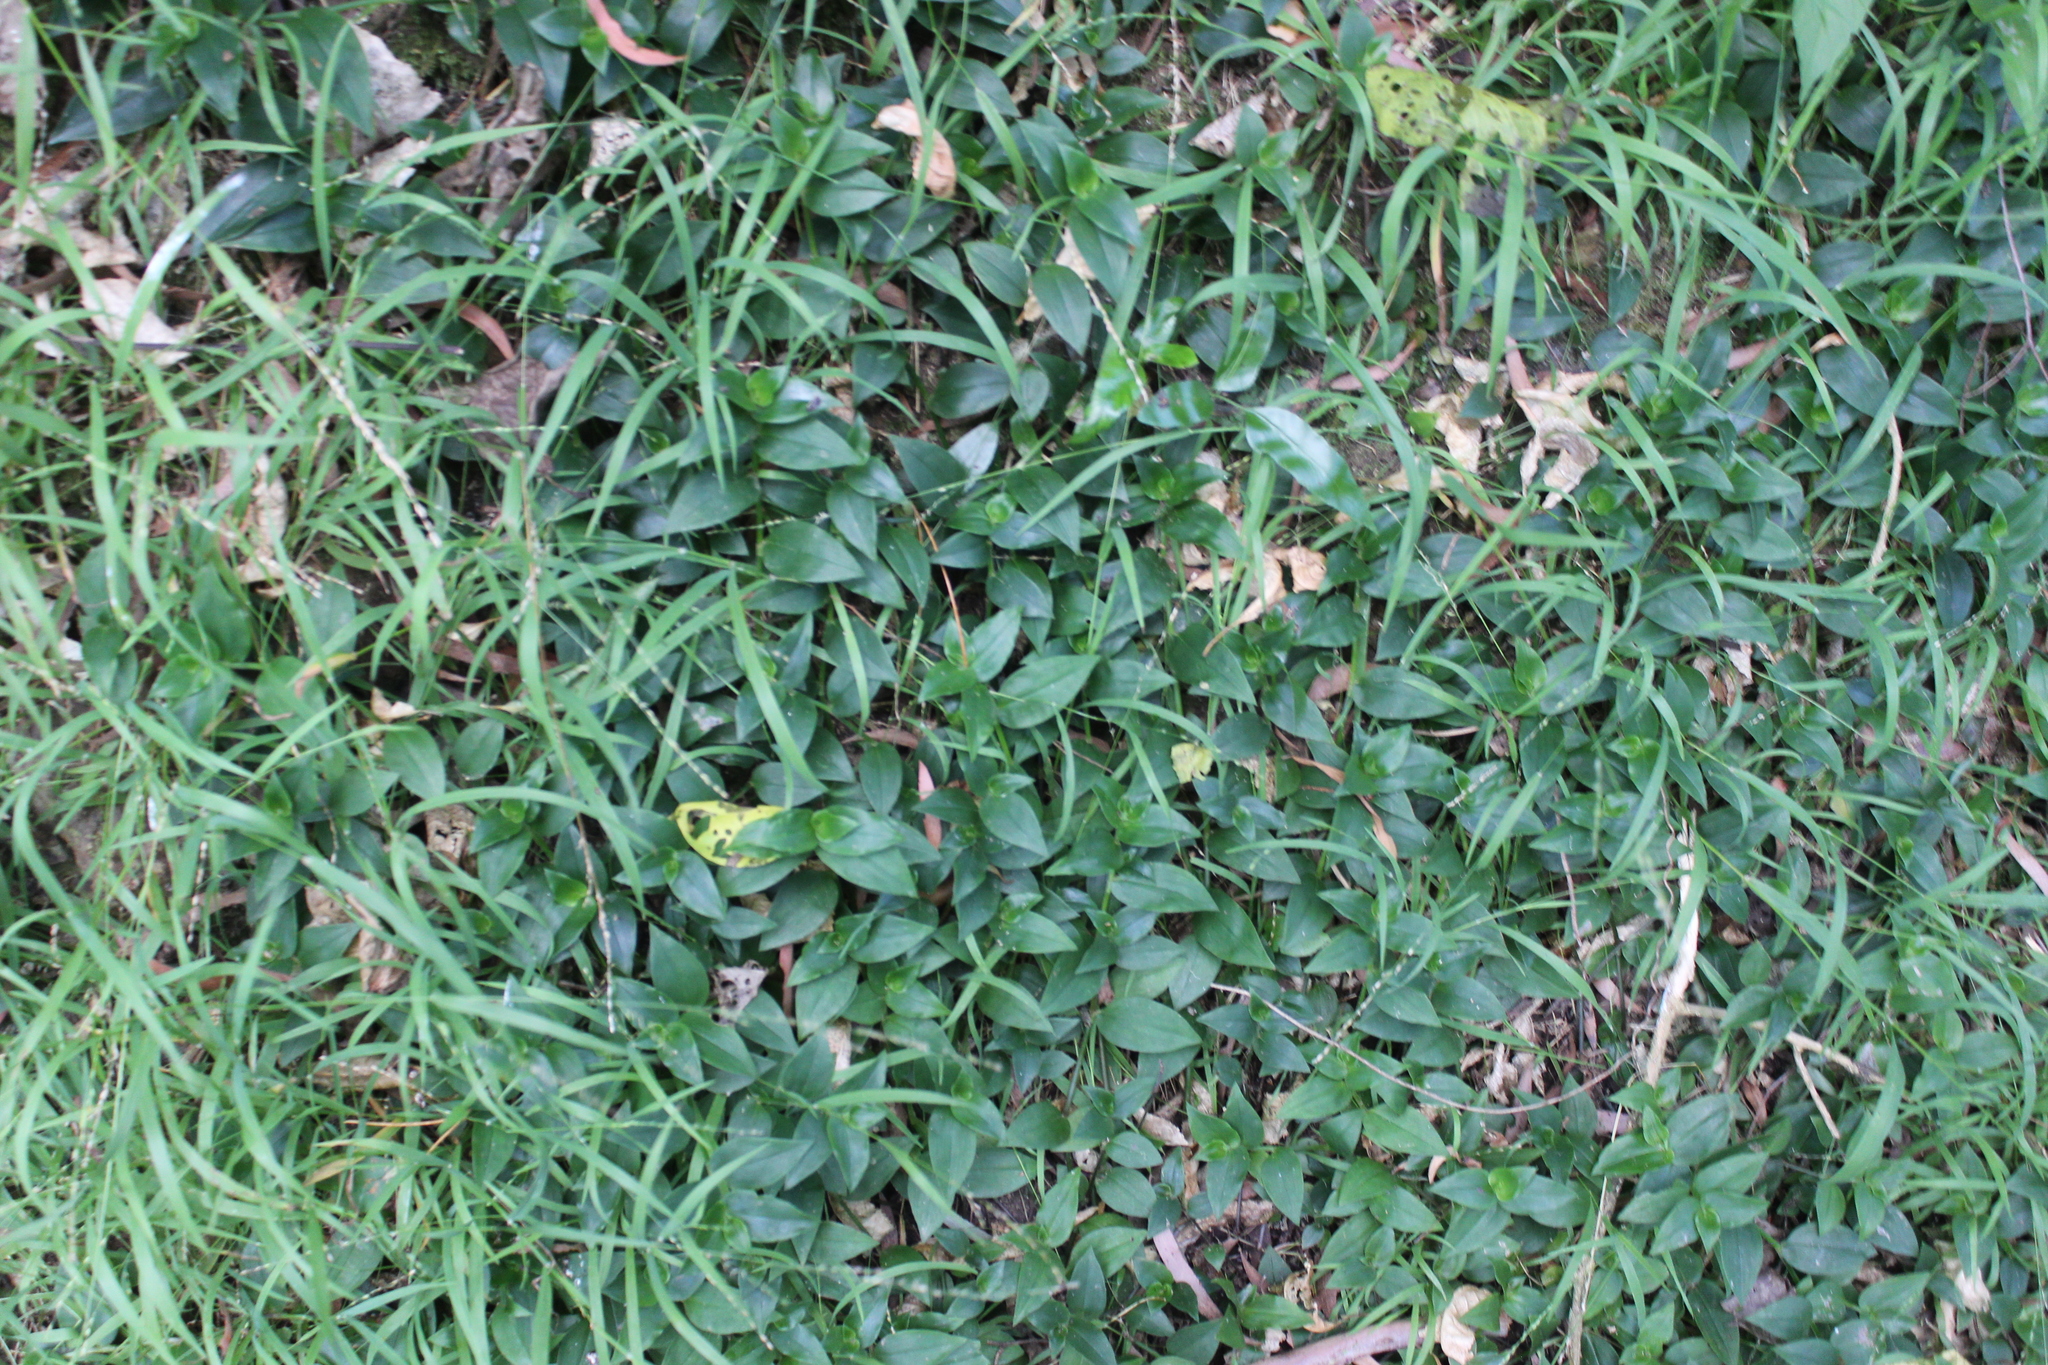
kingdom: Plantae
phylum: Tracheophyta
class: Liliopsida
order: Commelinales
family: Commelinaceae
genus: Tradescantia
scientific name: Tradescantia fluminensis
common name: Wandering-jew
